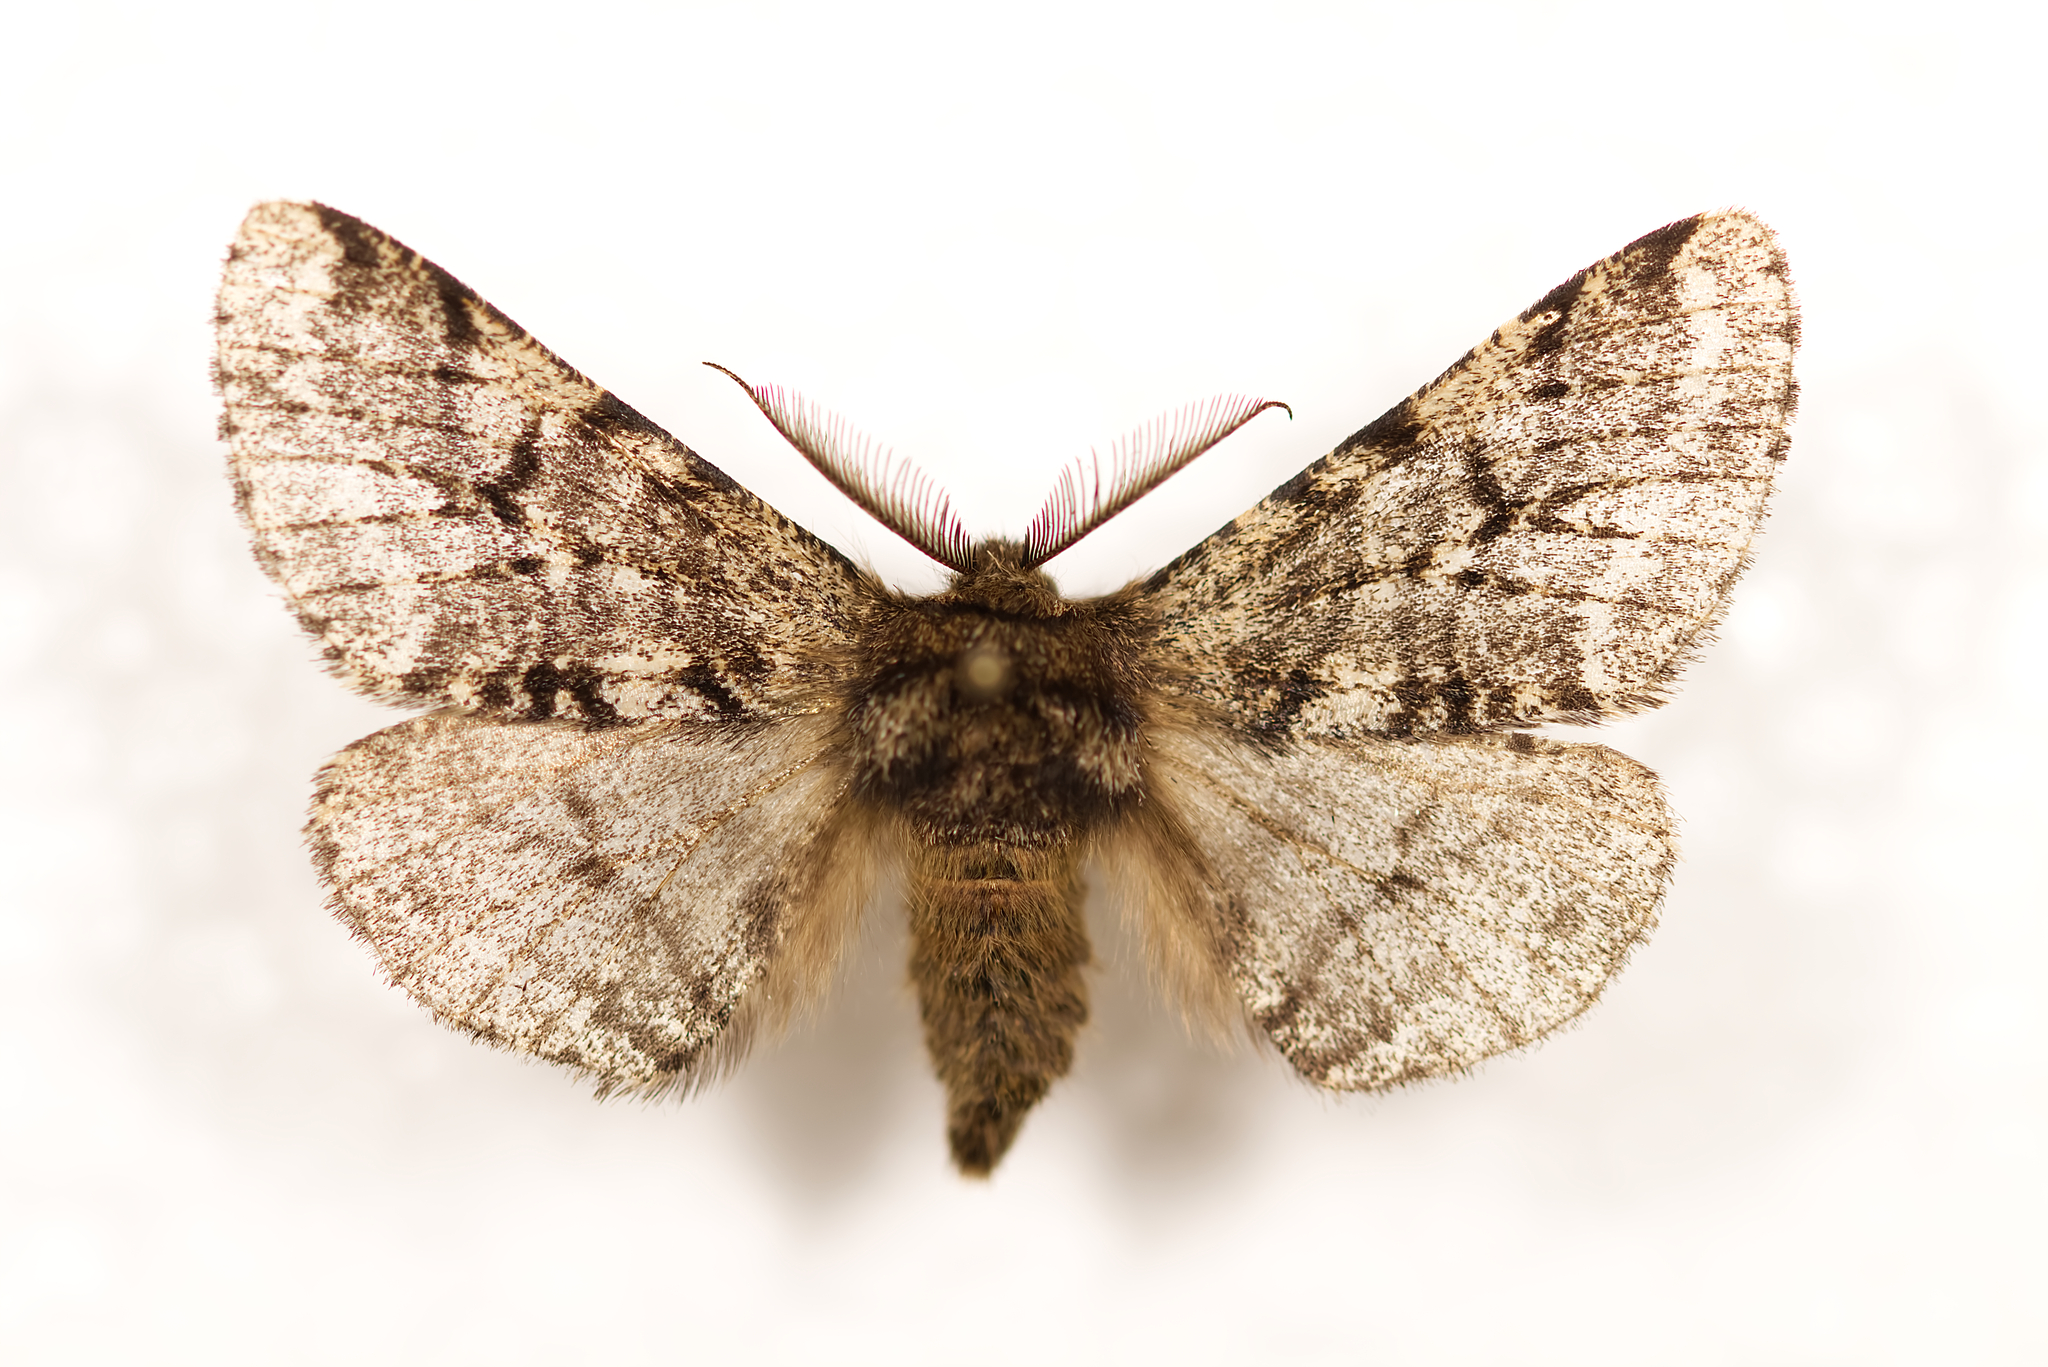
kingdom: Animalia
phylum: Arthropoda
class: Insecta
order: Lepidoptera
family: Geometridae
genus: Lycia
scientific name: Lycia hirtaria
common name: Brindled beauty
